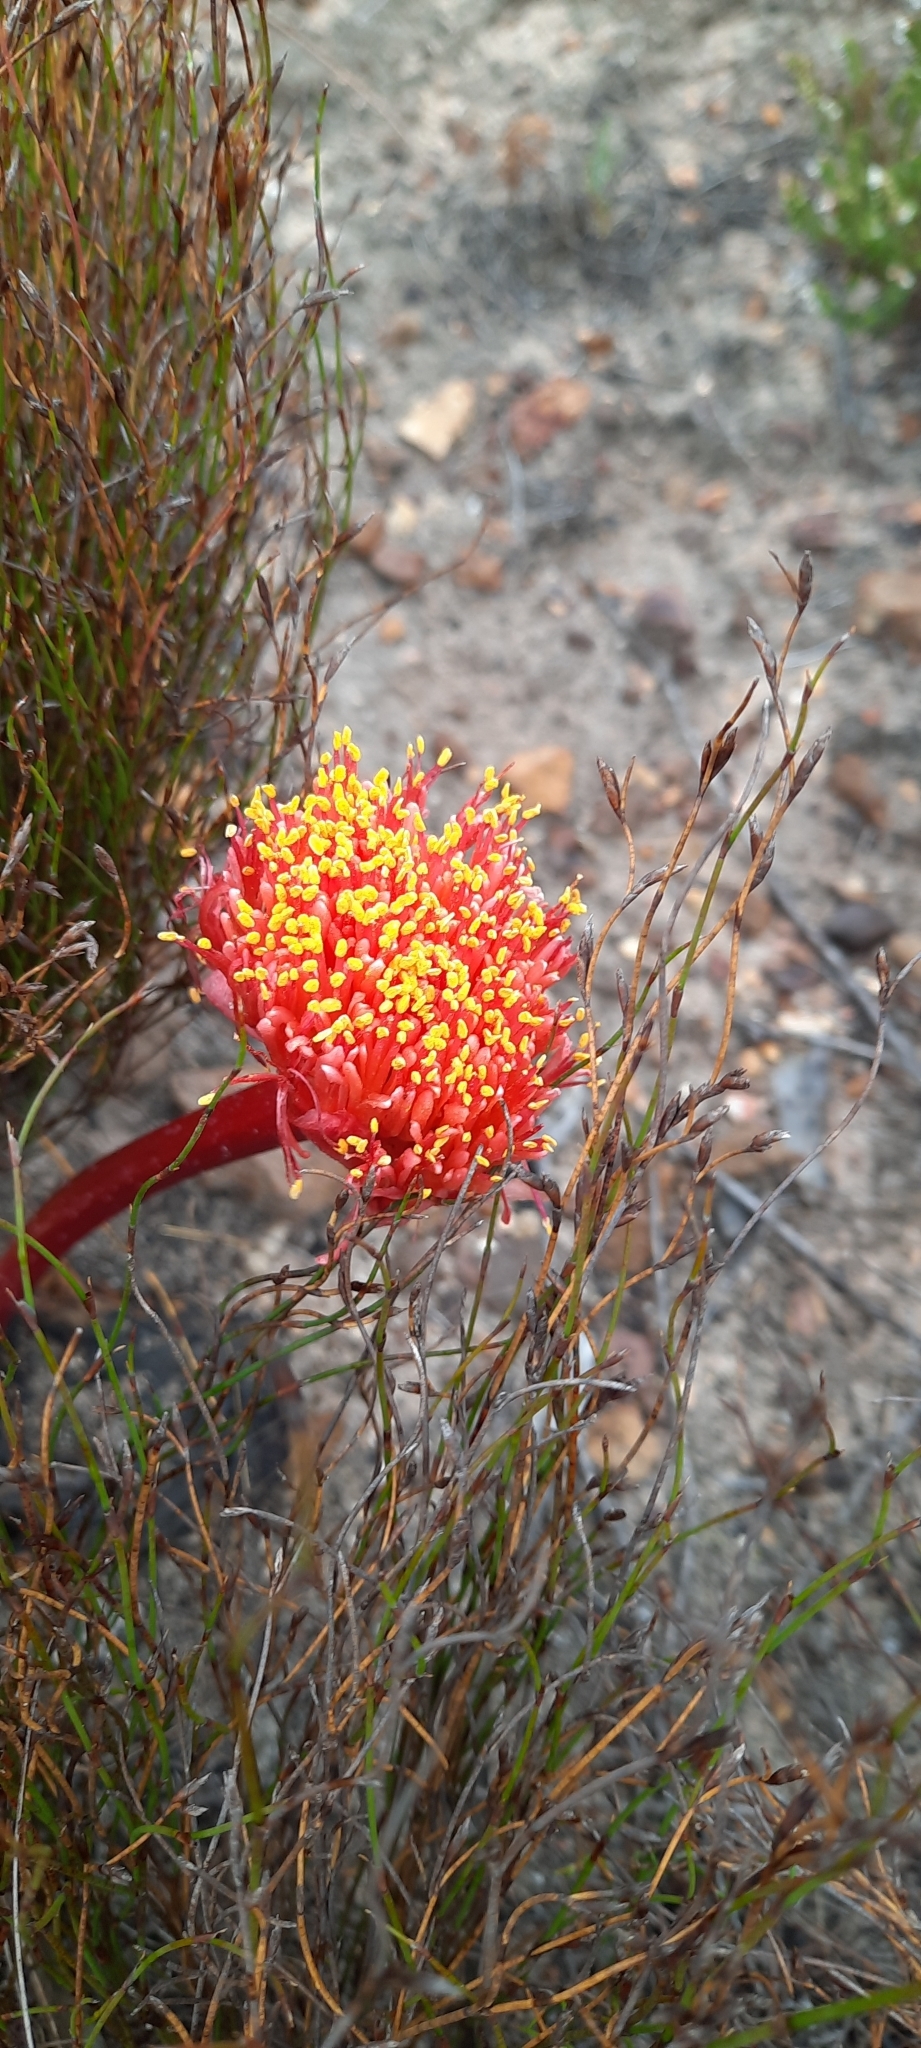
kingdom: Plantae
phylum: Tracheophyta
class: Liliopsida
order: Asparagales
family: Amaryllidaceae
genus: Haemanthus
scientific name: Haemanthus sanguineus
